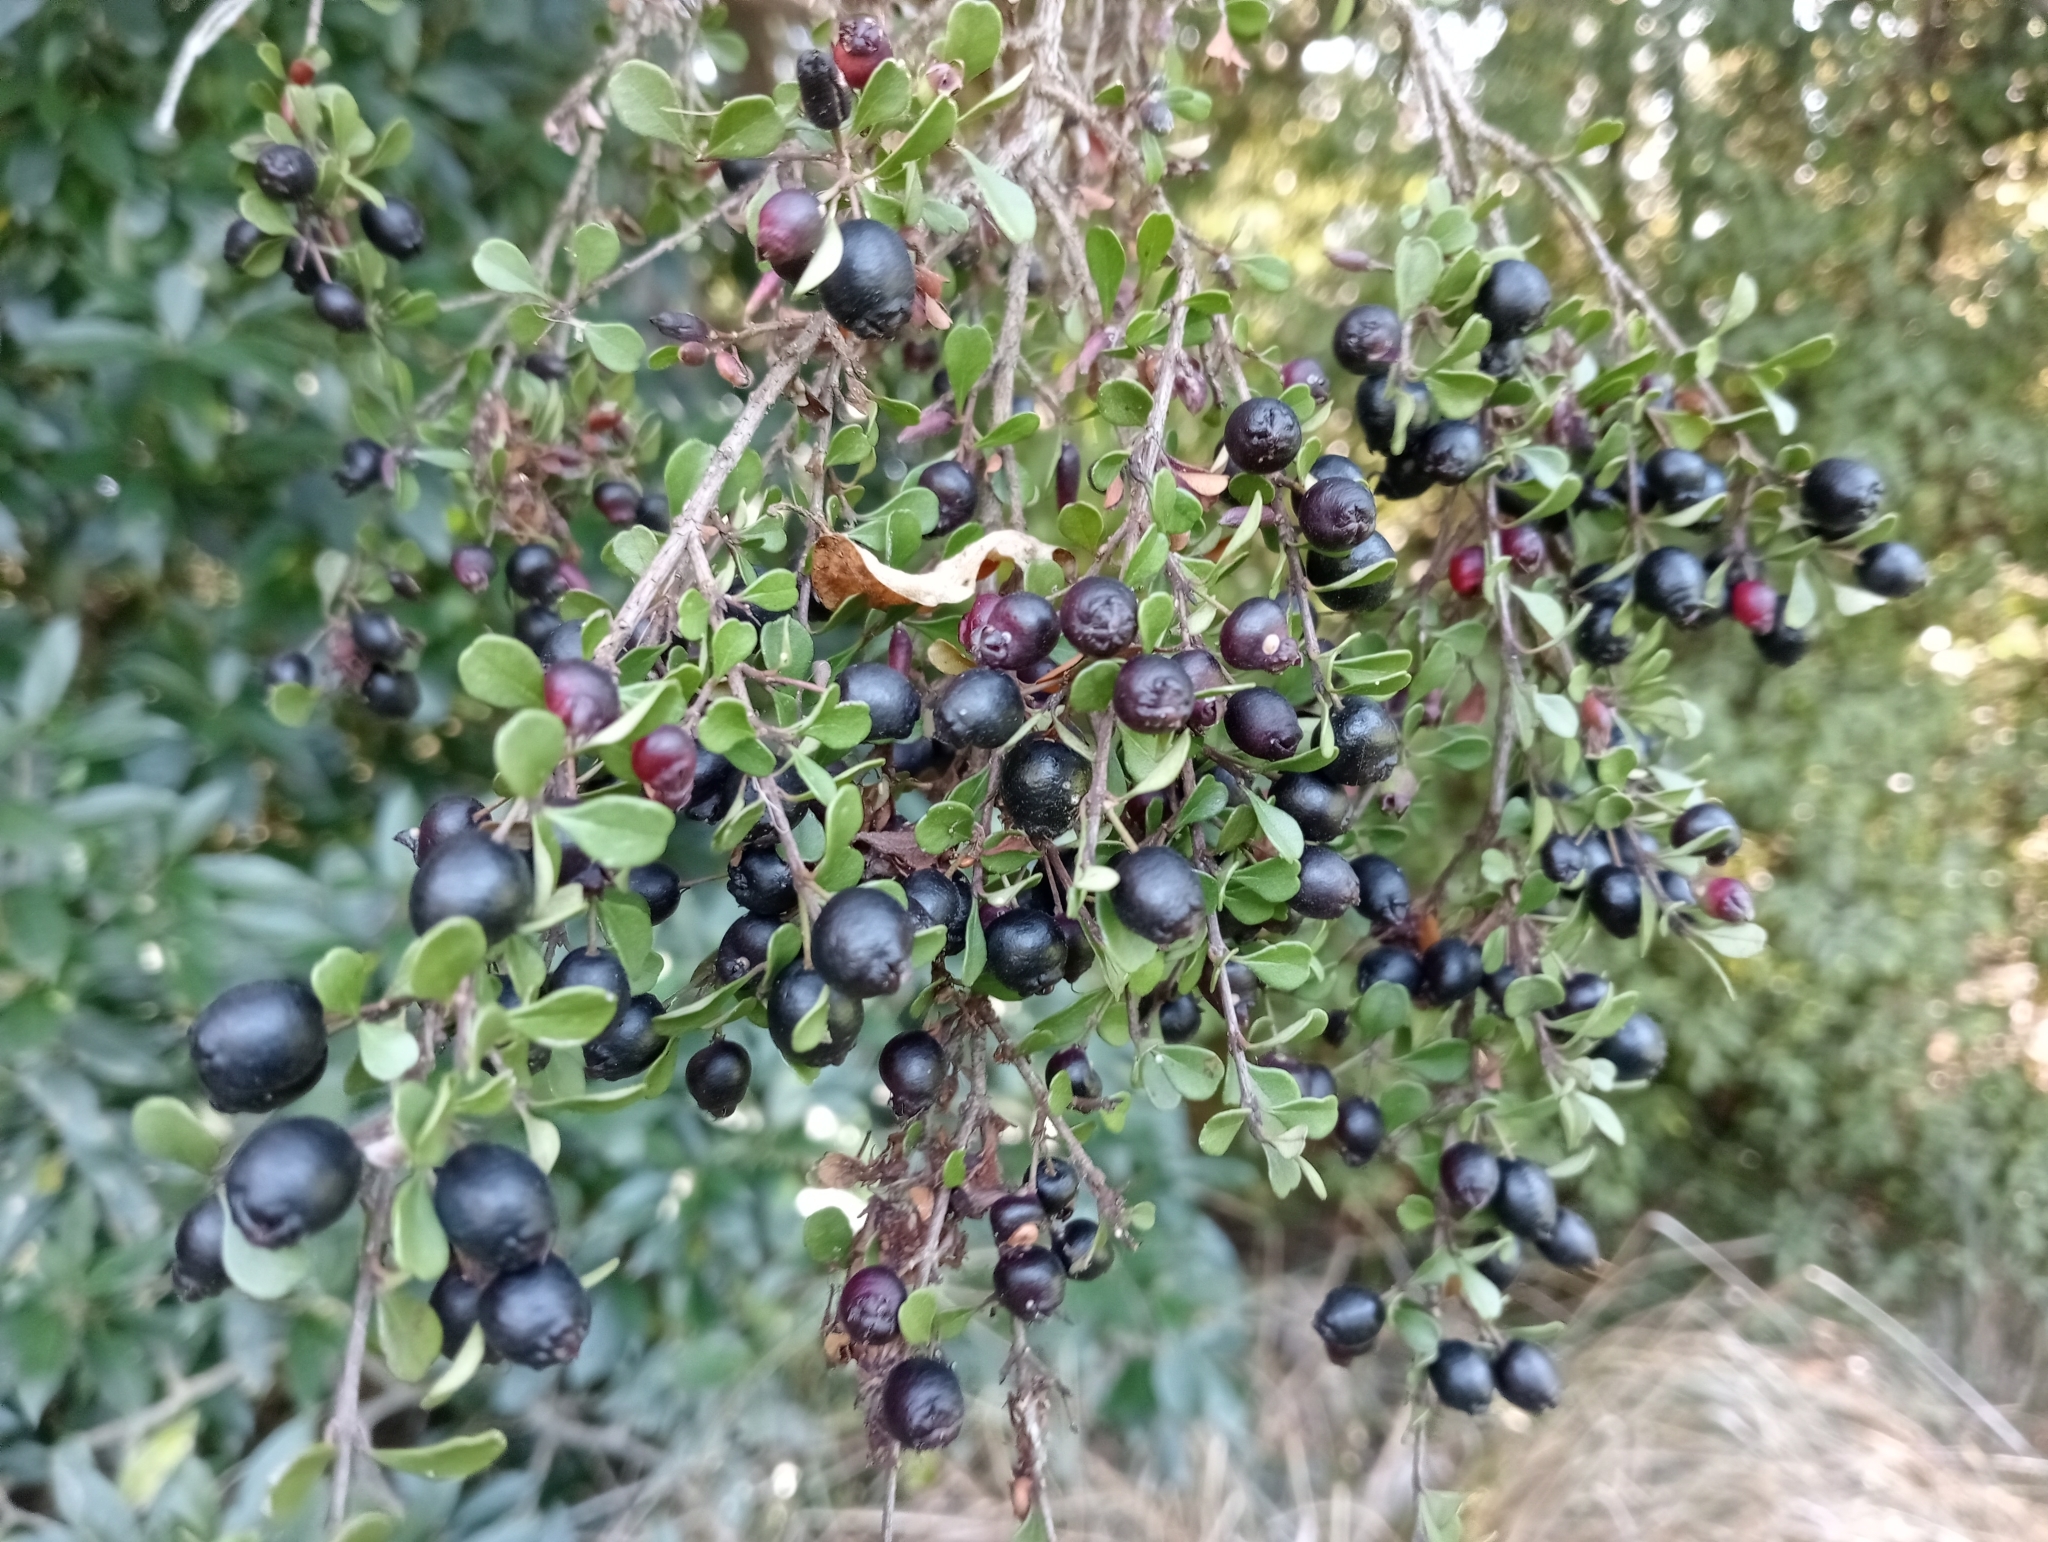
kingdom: Plantae
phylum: Tracheophyta
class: Magnoliopsida
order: Myrtales
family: Myrtaceae
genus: Lophomyrtus
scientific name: Lophomyrtus obcordata
